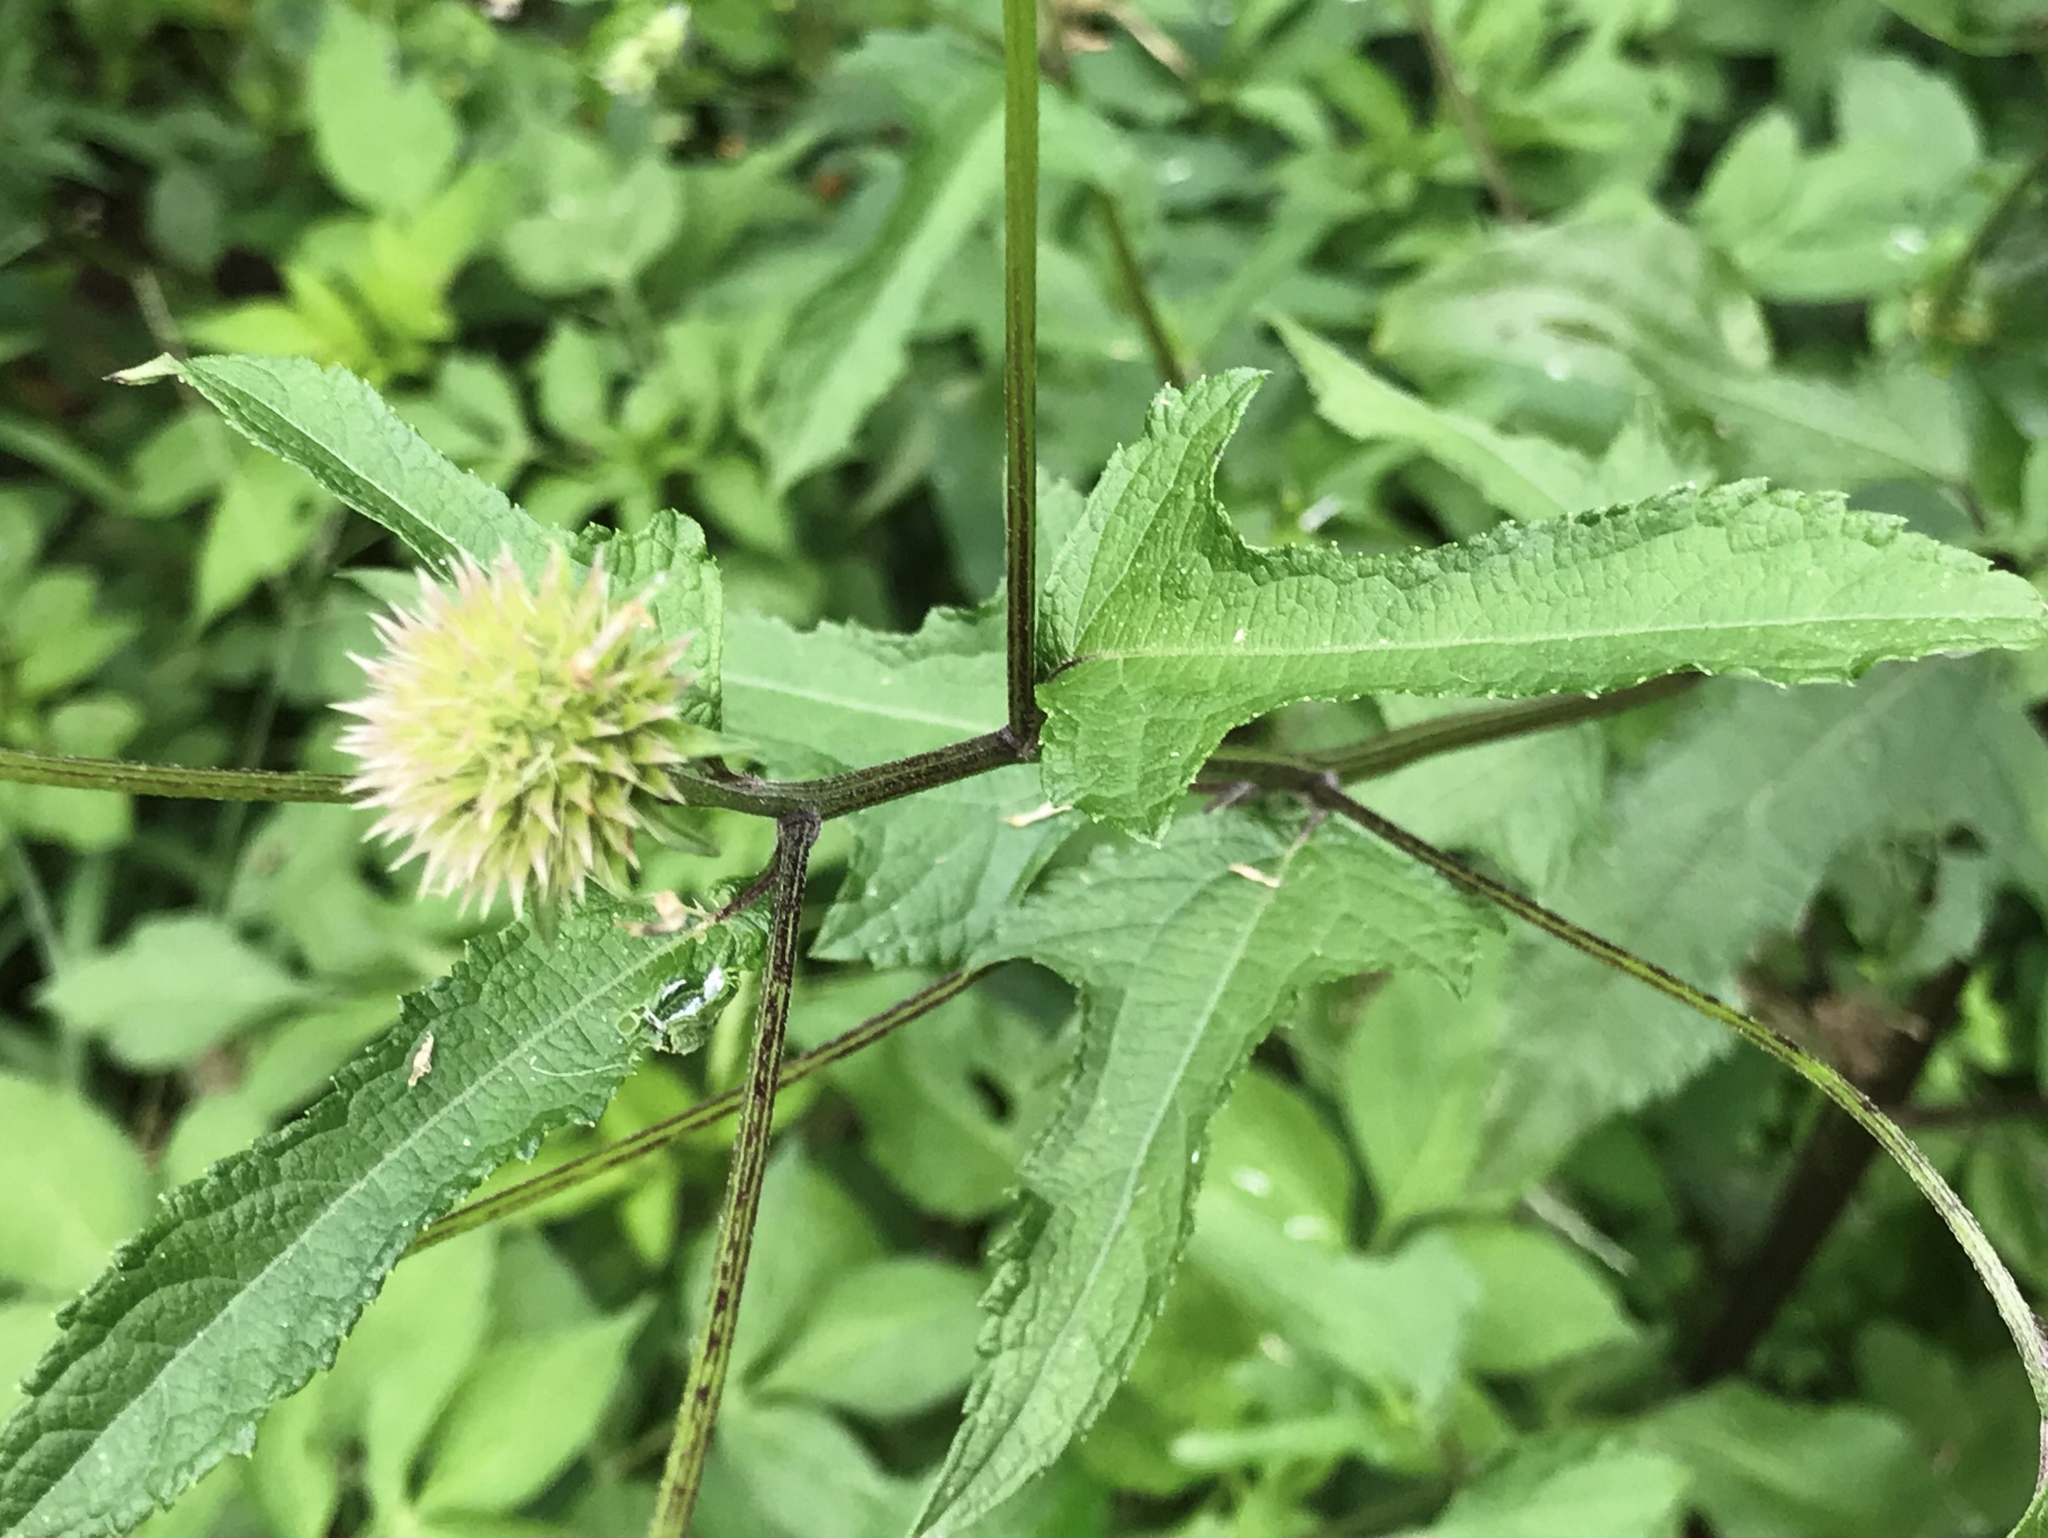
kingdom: Plantae
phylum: Tracheophyta
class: Magnoliopsida
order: Asterales
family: Asteraceae
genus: Melanthera
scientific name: Melanthera nivea
